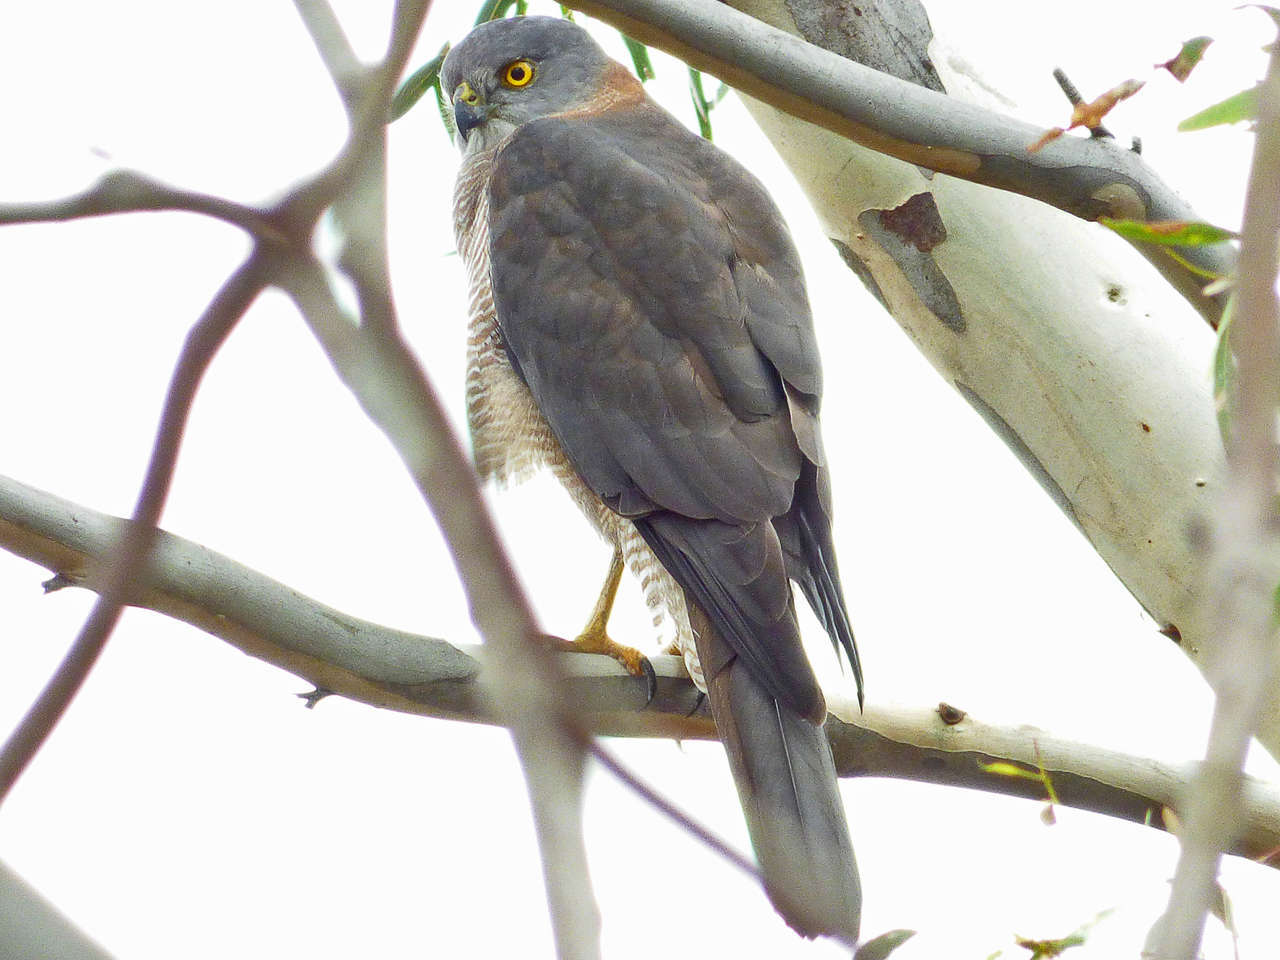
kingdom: Animalia
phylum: Chordata
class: Aves
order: Accipitriformes
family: Accipitridae
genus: Accipiter
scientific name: Accipiter fasciatus
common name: Brown goshawk
